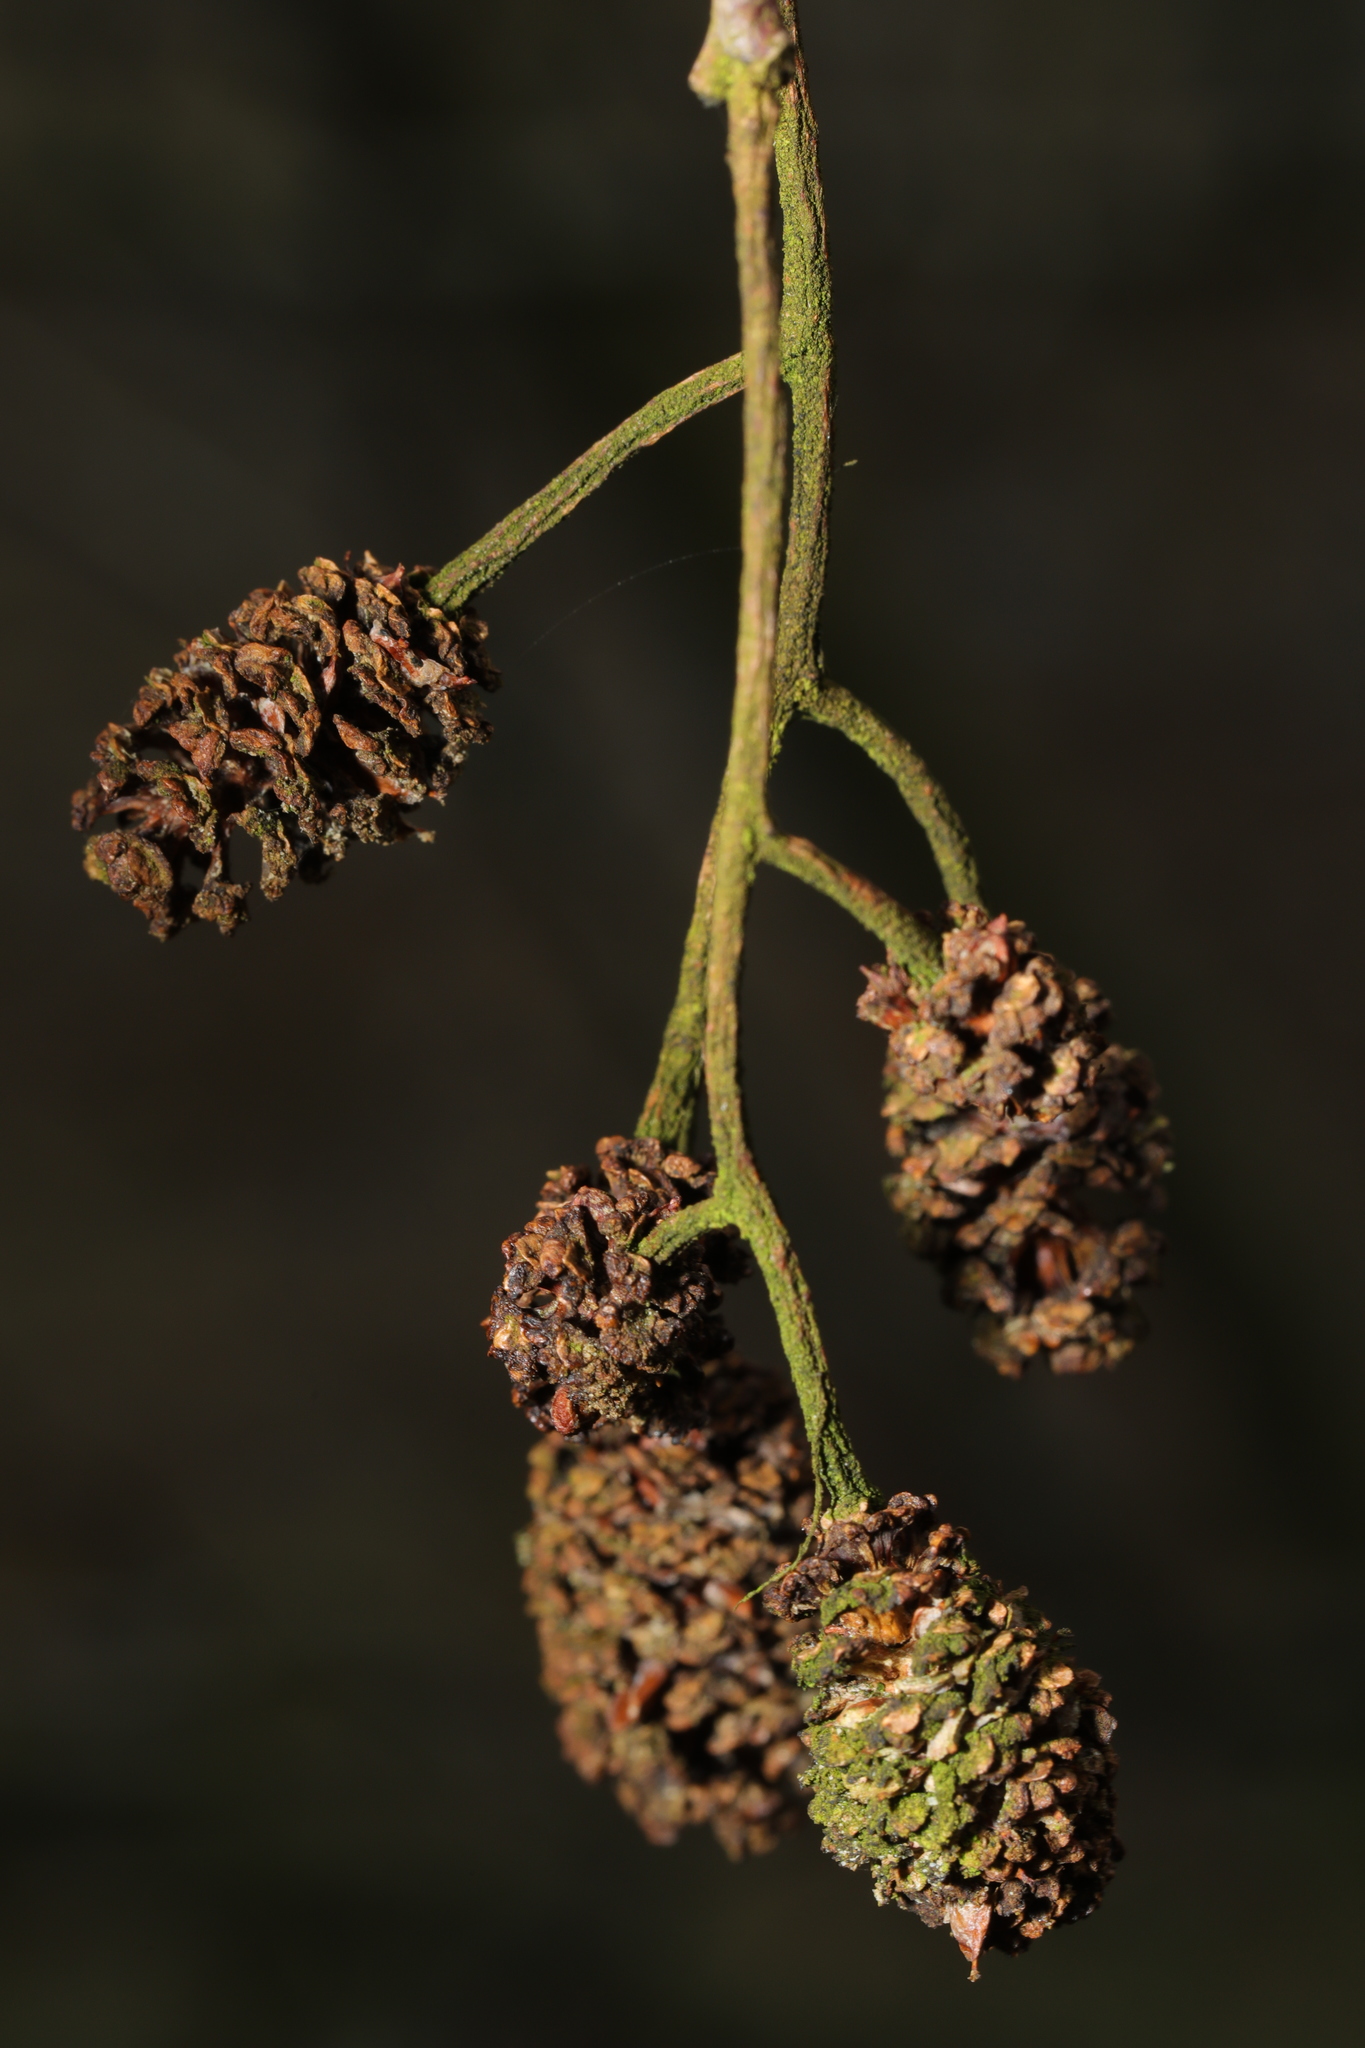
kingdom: Plantae
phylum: Tracheophyta
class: Magnoliopsida
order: Fagales
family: Betulaceae
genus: Alnus
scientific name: Alnus glutinosa
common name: Black alder
